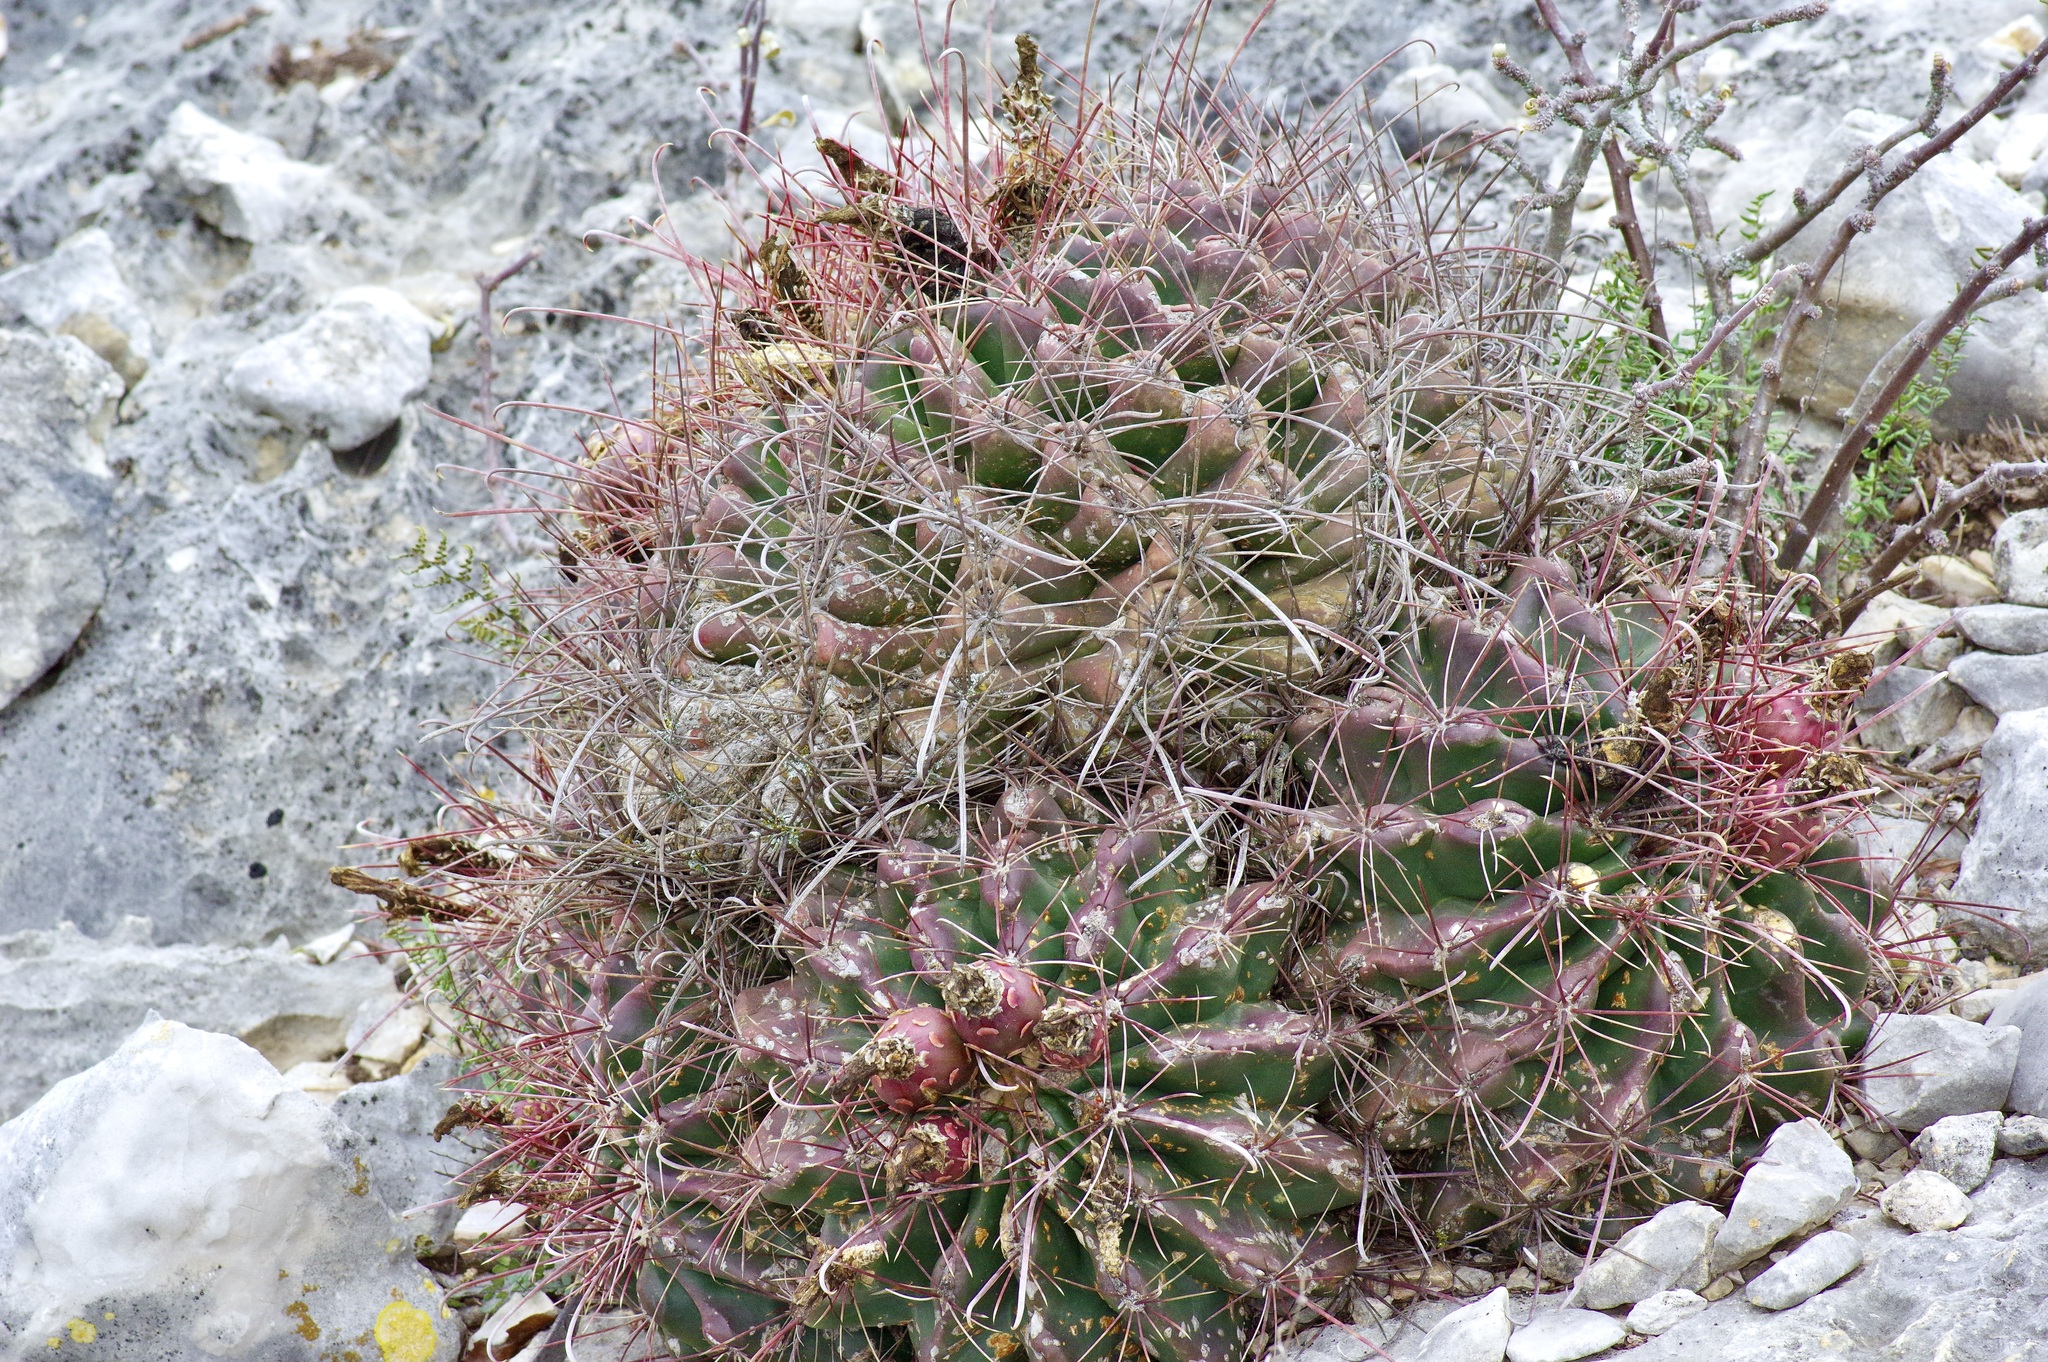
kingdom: Plantae
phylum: Tracheophyta
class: Magnoliopsida
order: Caryophyllales
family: Cactaceae
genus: Bisnaga
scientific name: Bisnaga hamatacantha
